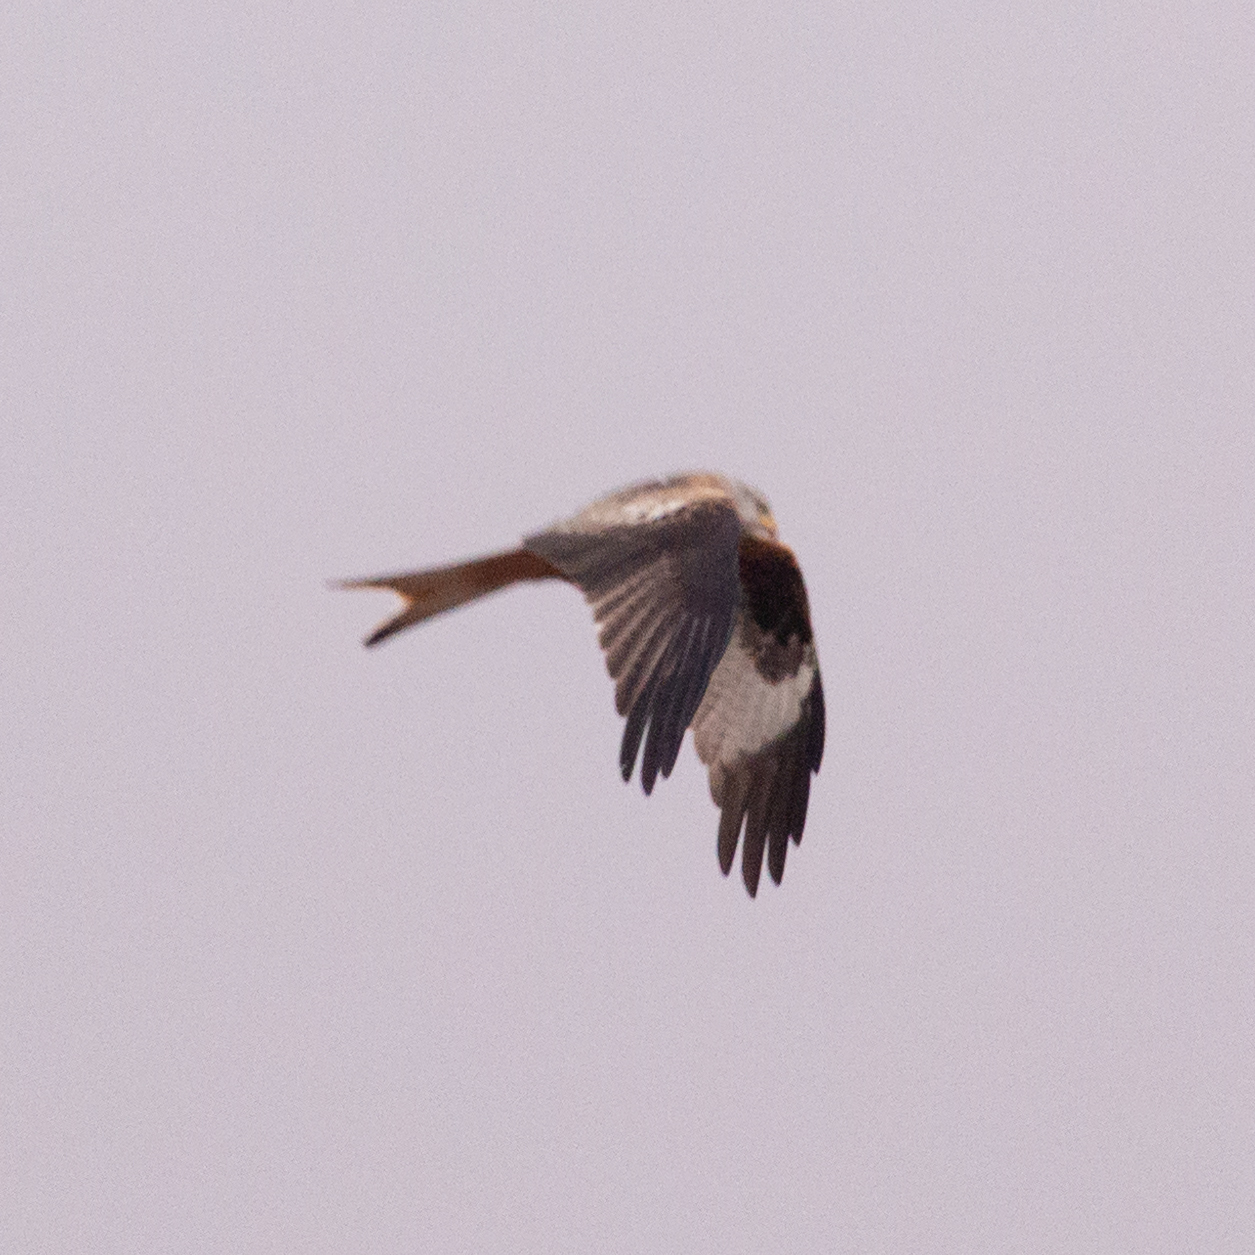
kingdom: Animalia
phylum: Chordata
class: Aves
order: Accipitriformes
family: Accipitridae
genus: Milvus
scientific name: Milvus milvus
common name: Red kite
